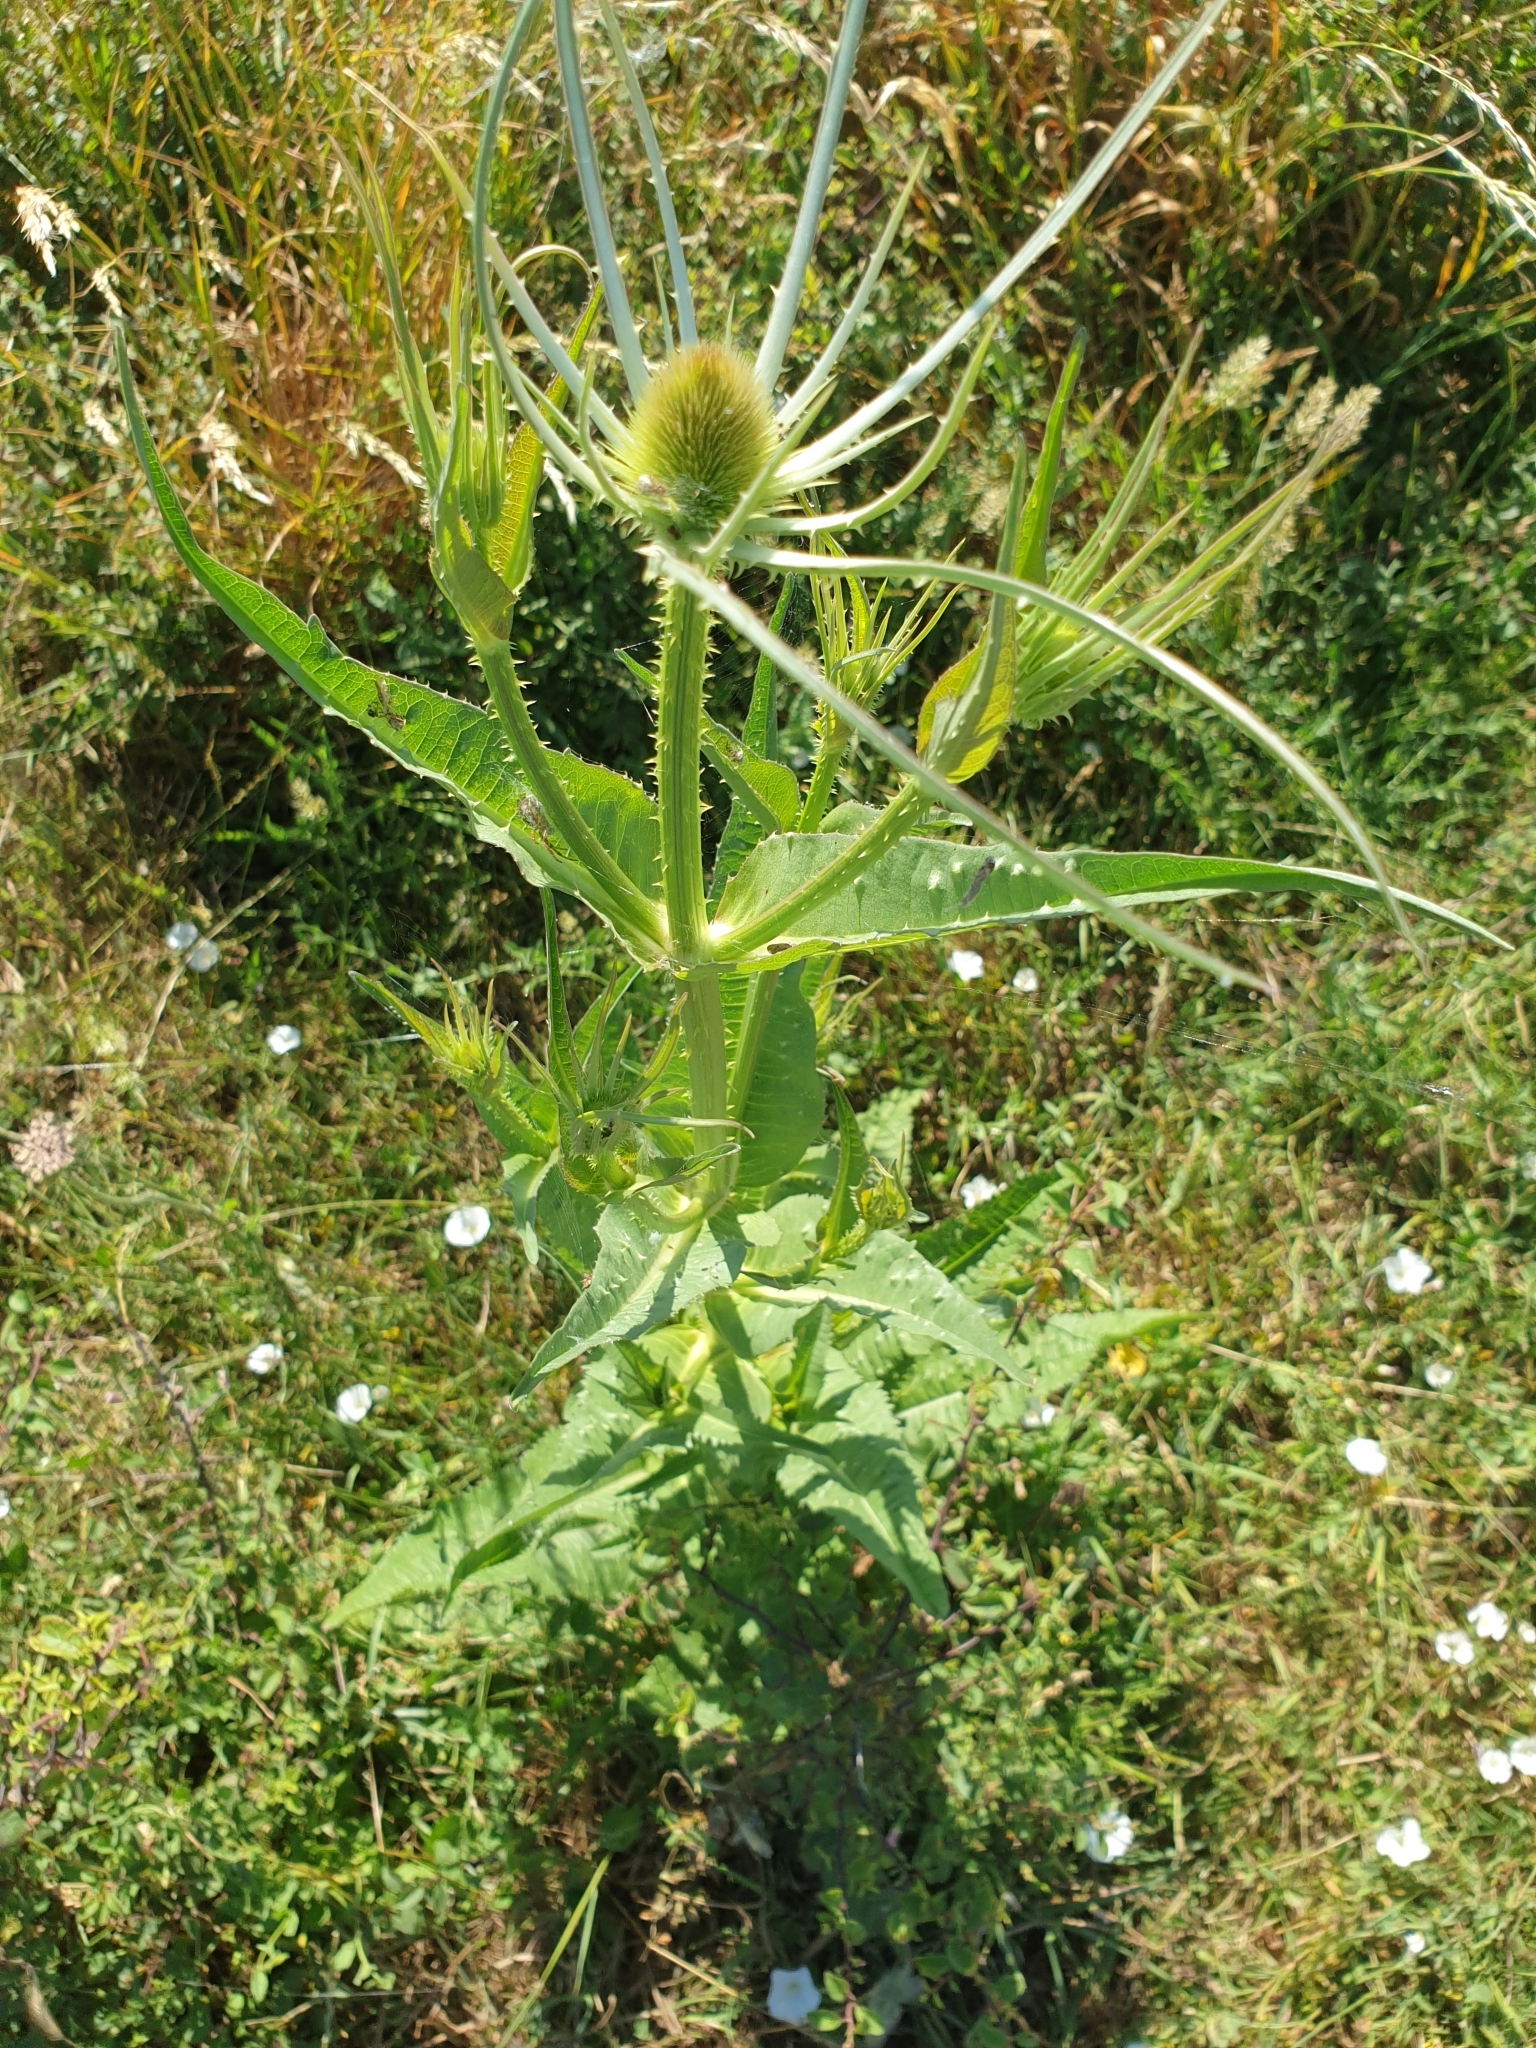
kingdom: Plantae
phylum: Tracheophyta
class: Magnoliopsida
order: Dipsacales
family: Caprifoliaceae
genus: Dipsacus
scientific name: Dipsacus fullonum
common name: Teasel
